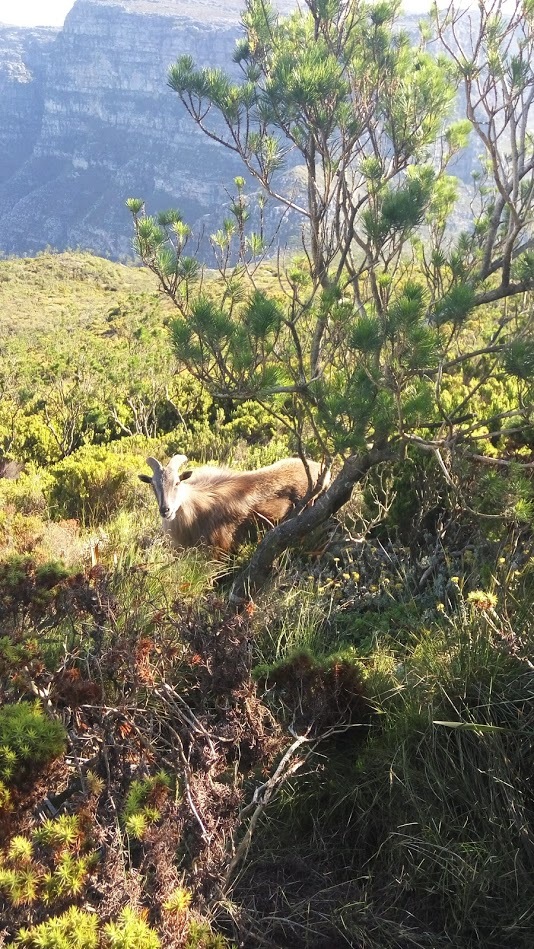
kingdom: Animalia
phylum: Chordata
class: Mammalia
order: Artiodactyla
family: Bovidae
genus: Hemitragus
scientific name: Hemitragus jemlahicus
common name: Himalayan tahr
